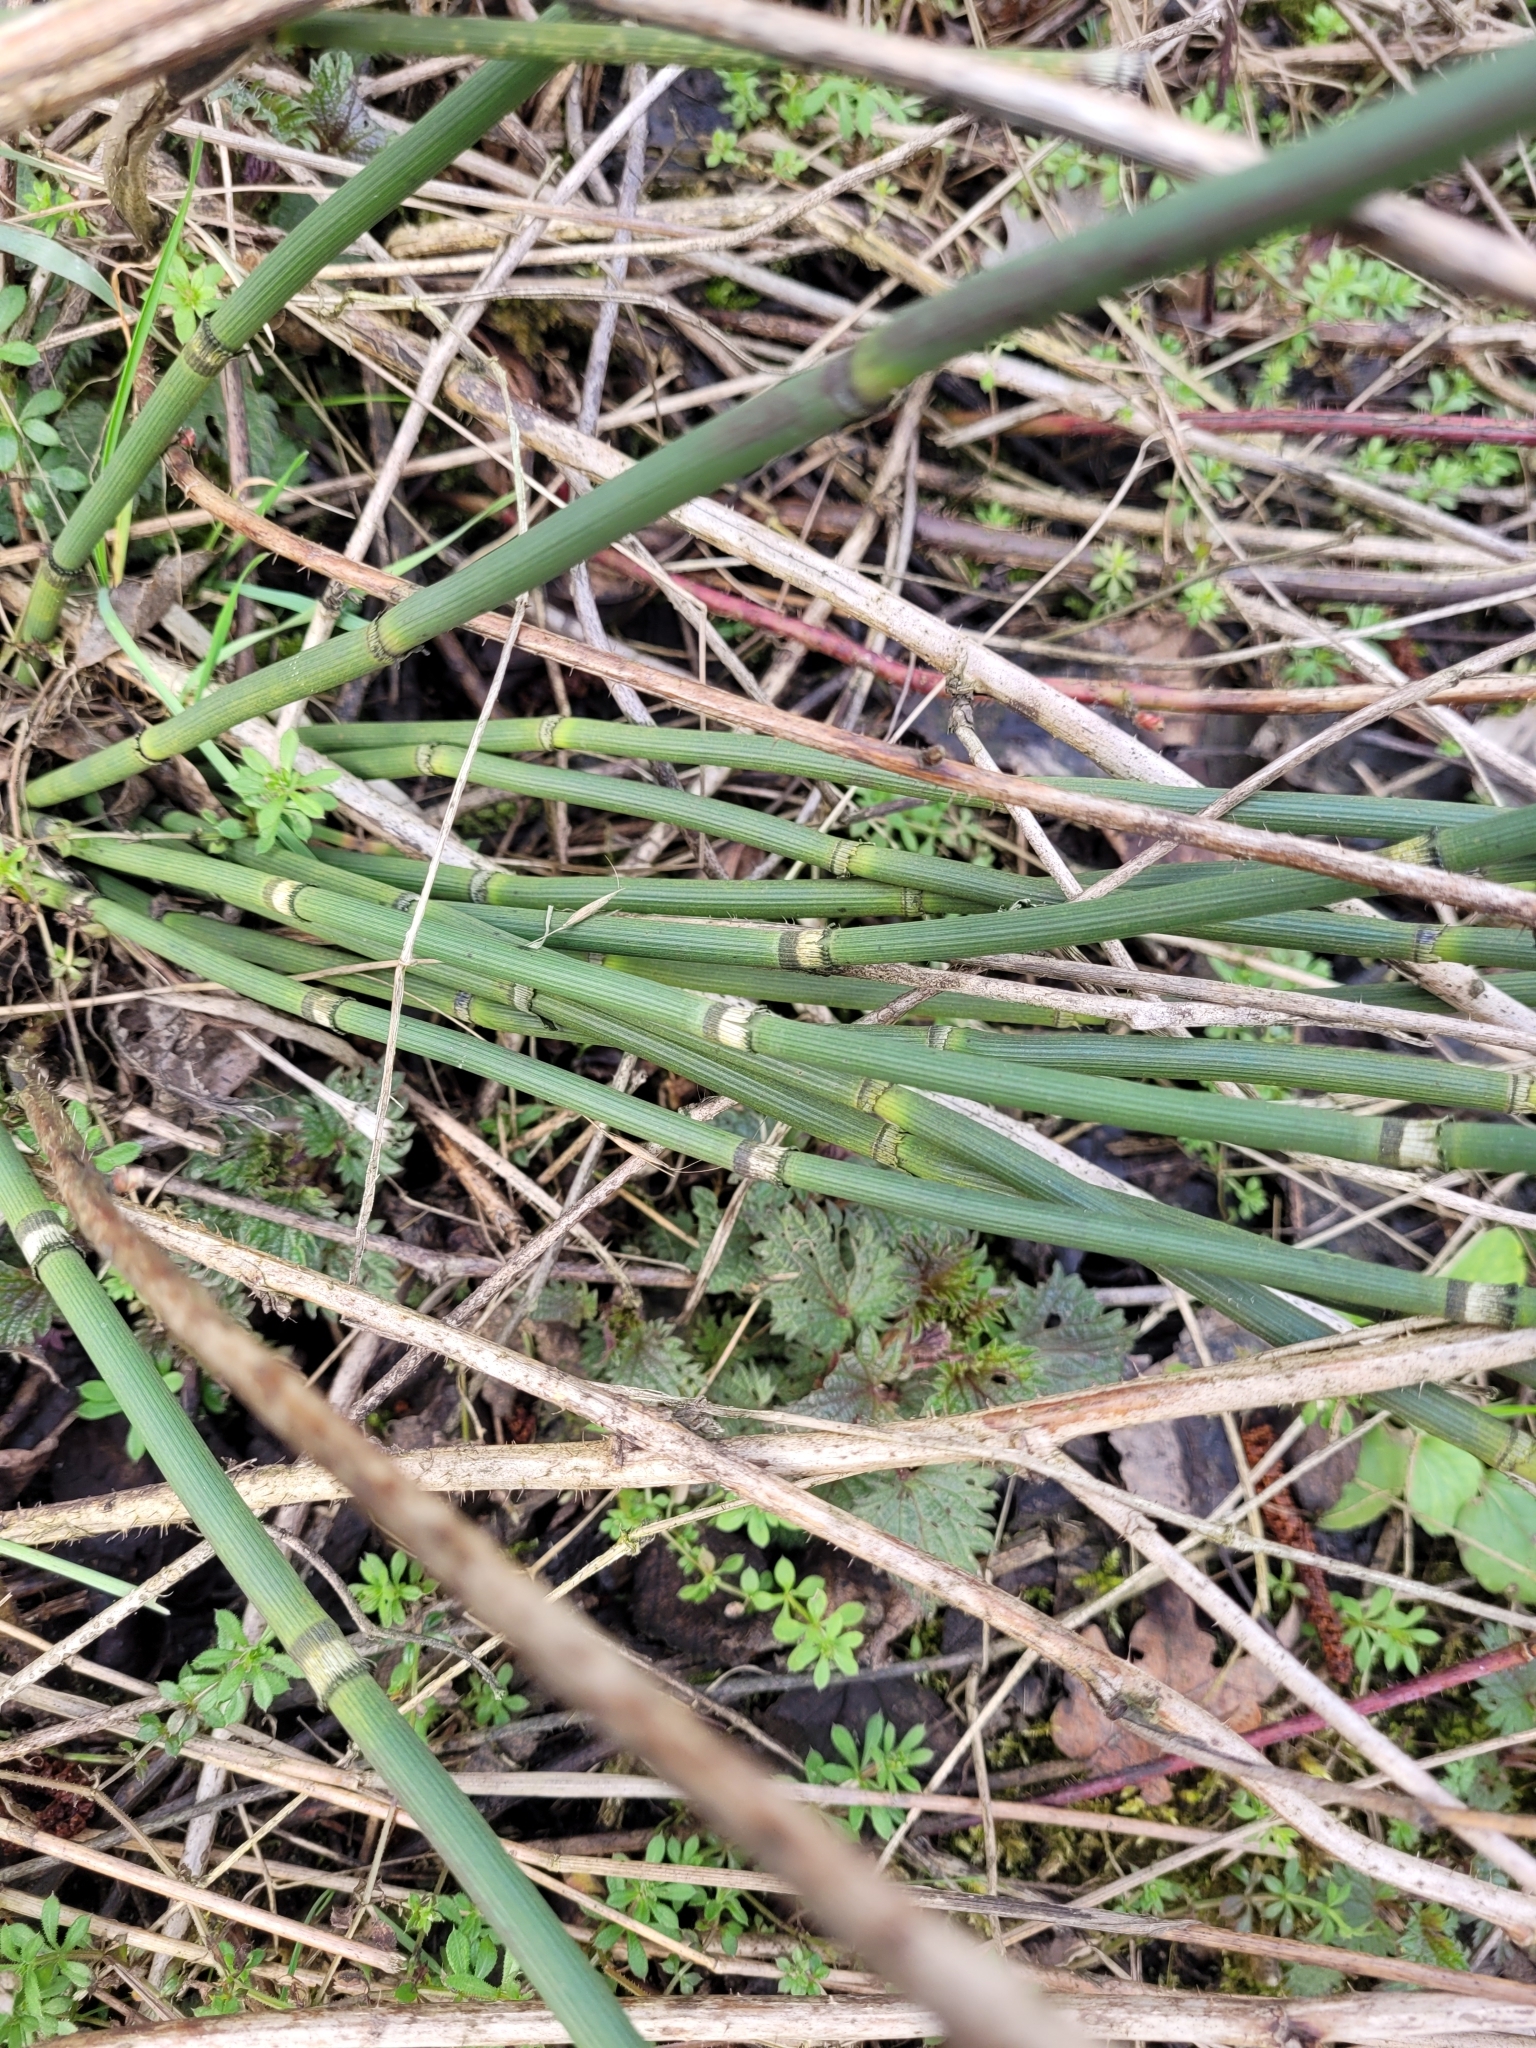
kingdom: Plantae
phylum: Tracheophyta
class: Polypodiopsida
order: Equisetales
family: Equisetaceae
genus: Equisetum
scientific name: Equisetum hyemale
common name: Rough horsetail
